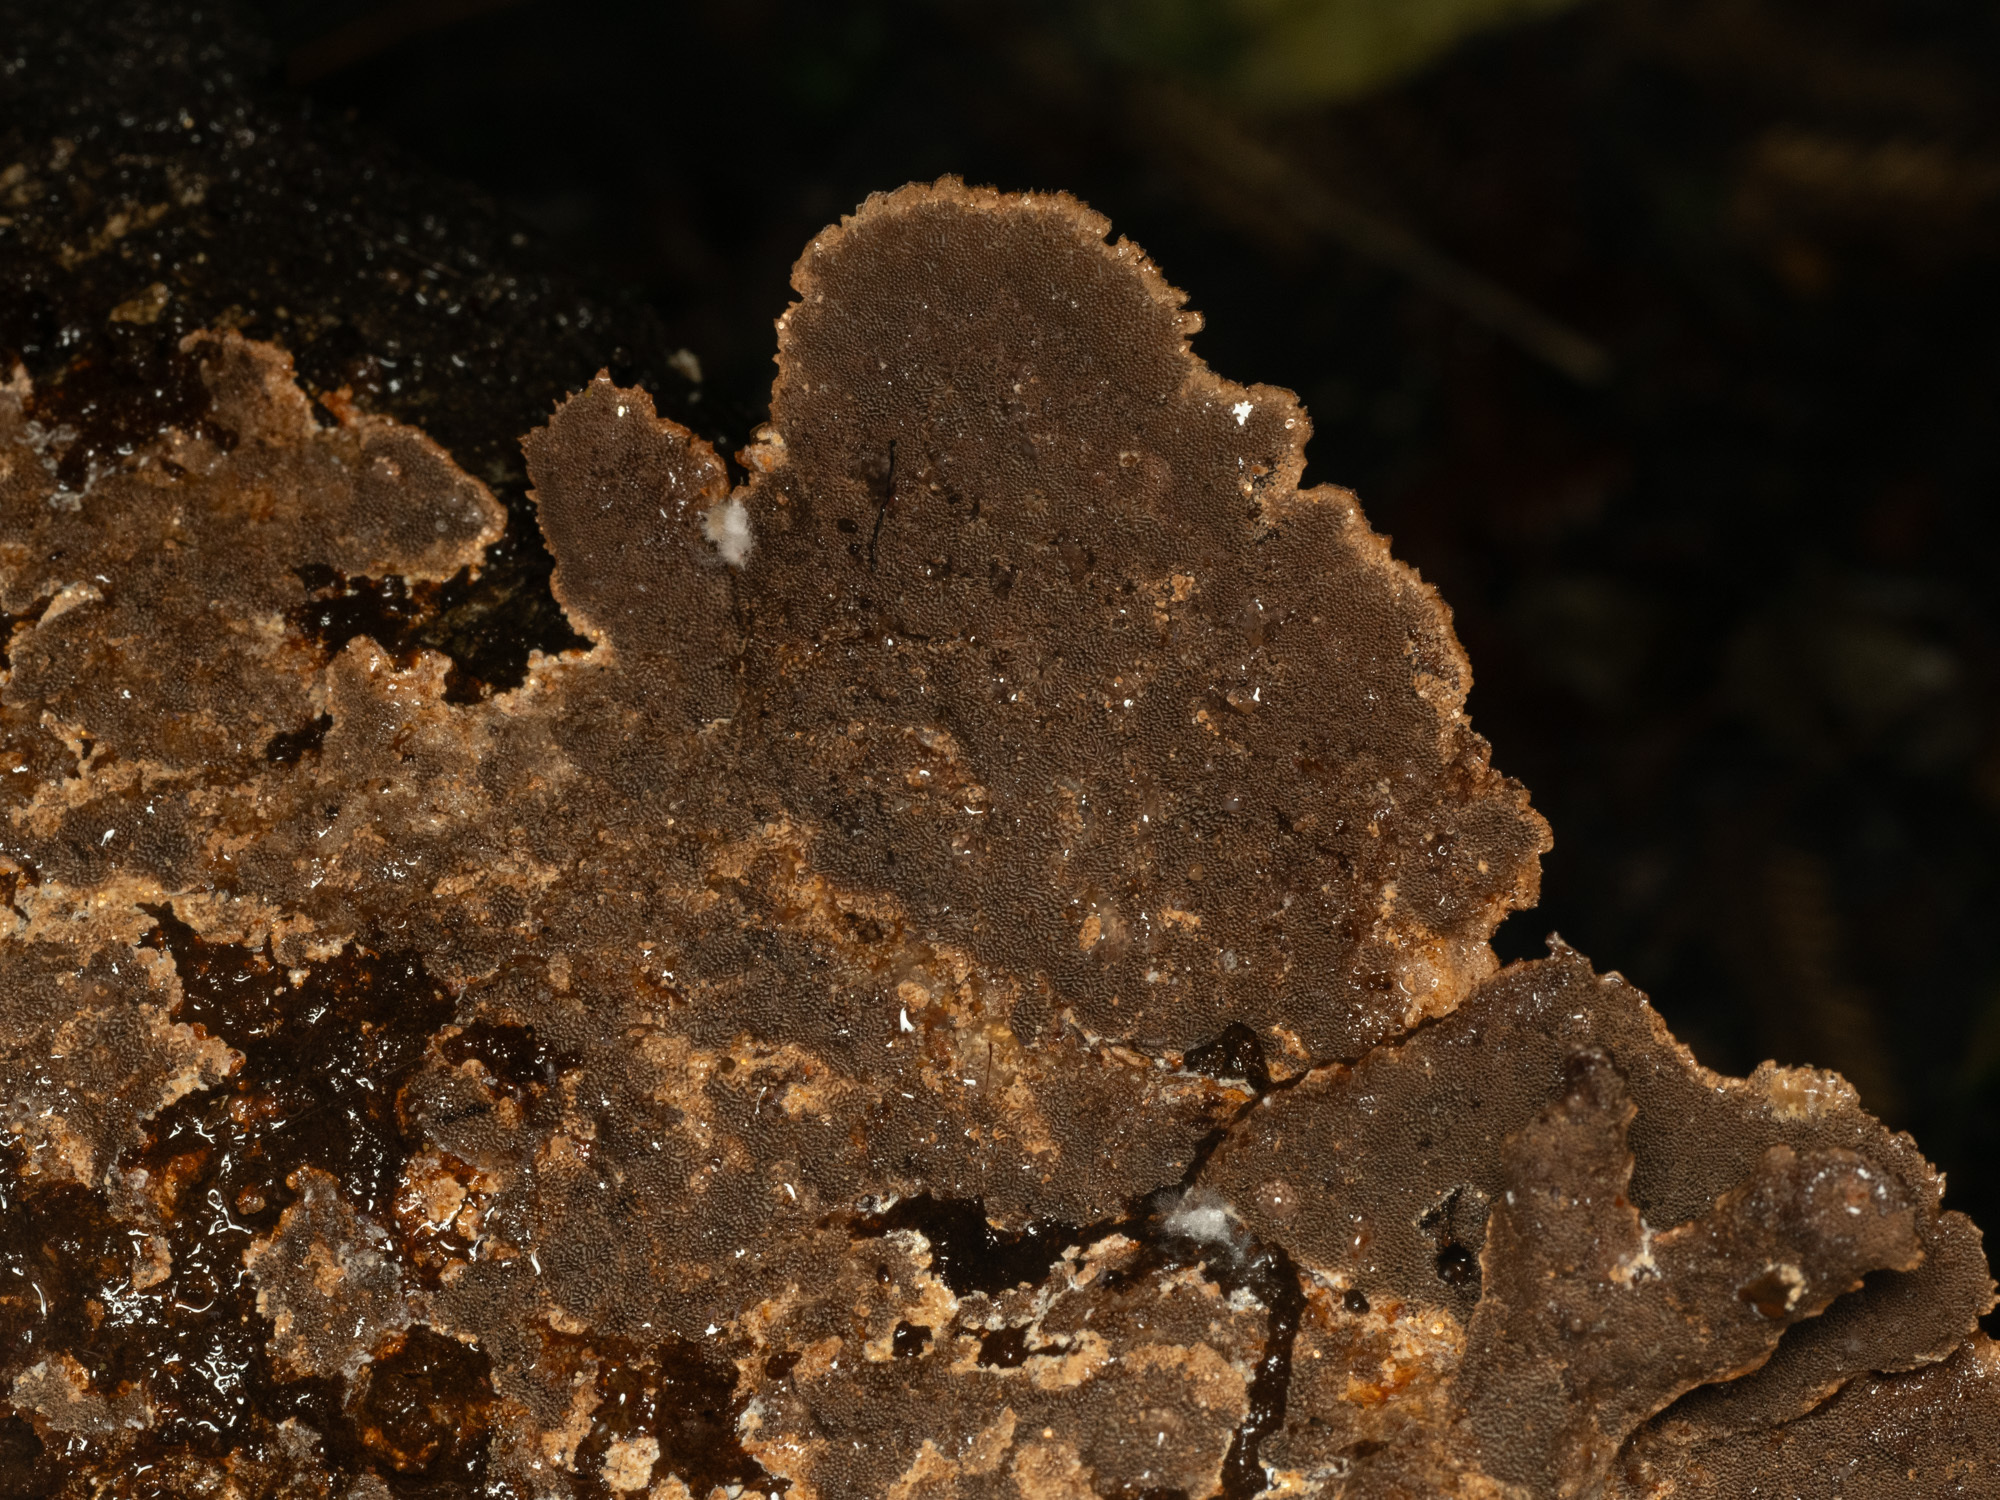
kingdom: Fungi
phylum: Basidiomycota
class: Agaricomycetes
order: Polyporales
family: Meripilaceae
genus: Rigidoporus
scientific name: Rigidoporus aureofulvus
